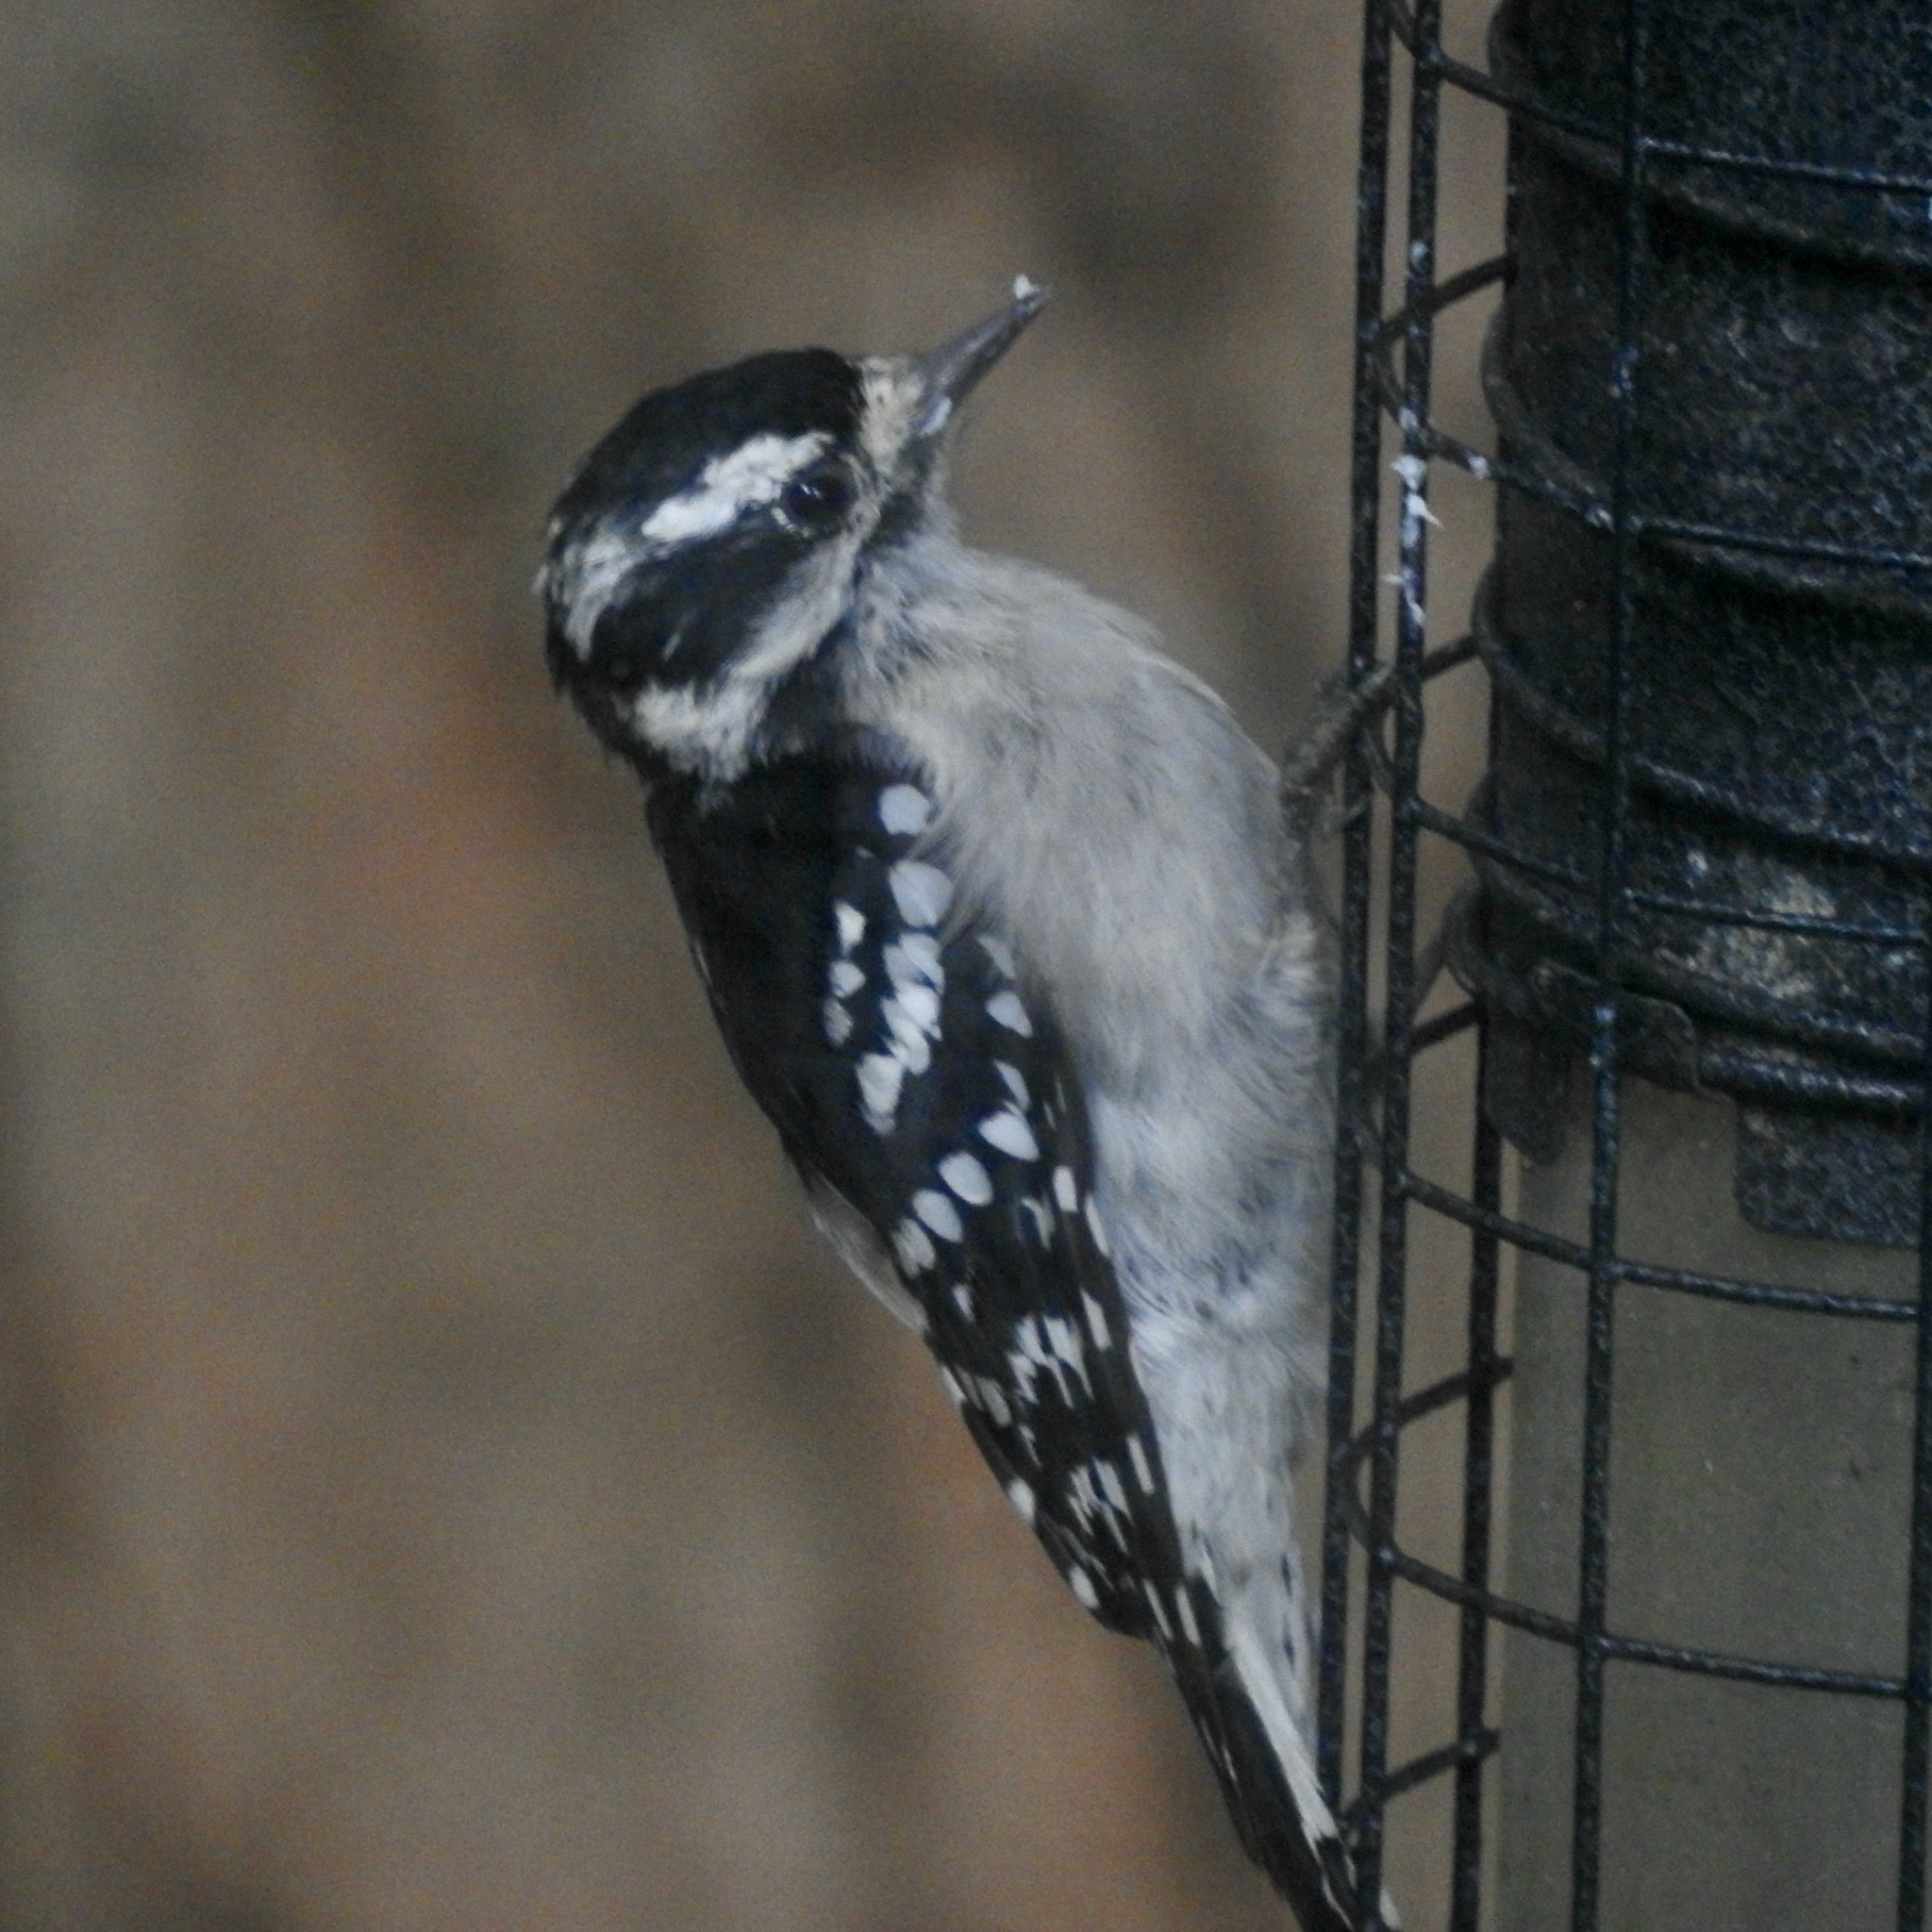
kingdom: Animalia
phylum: Chordata
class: Aves
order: Piciformes
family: Picidae
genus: Dryobates
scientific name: Dryobates pubescens
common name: Downy woodpecker
